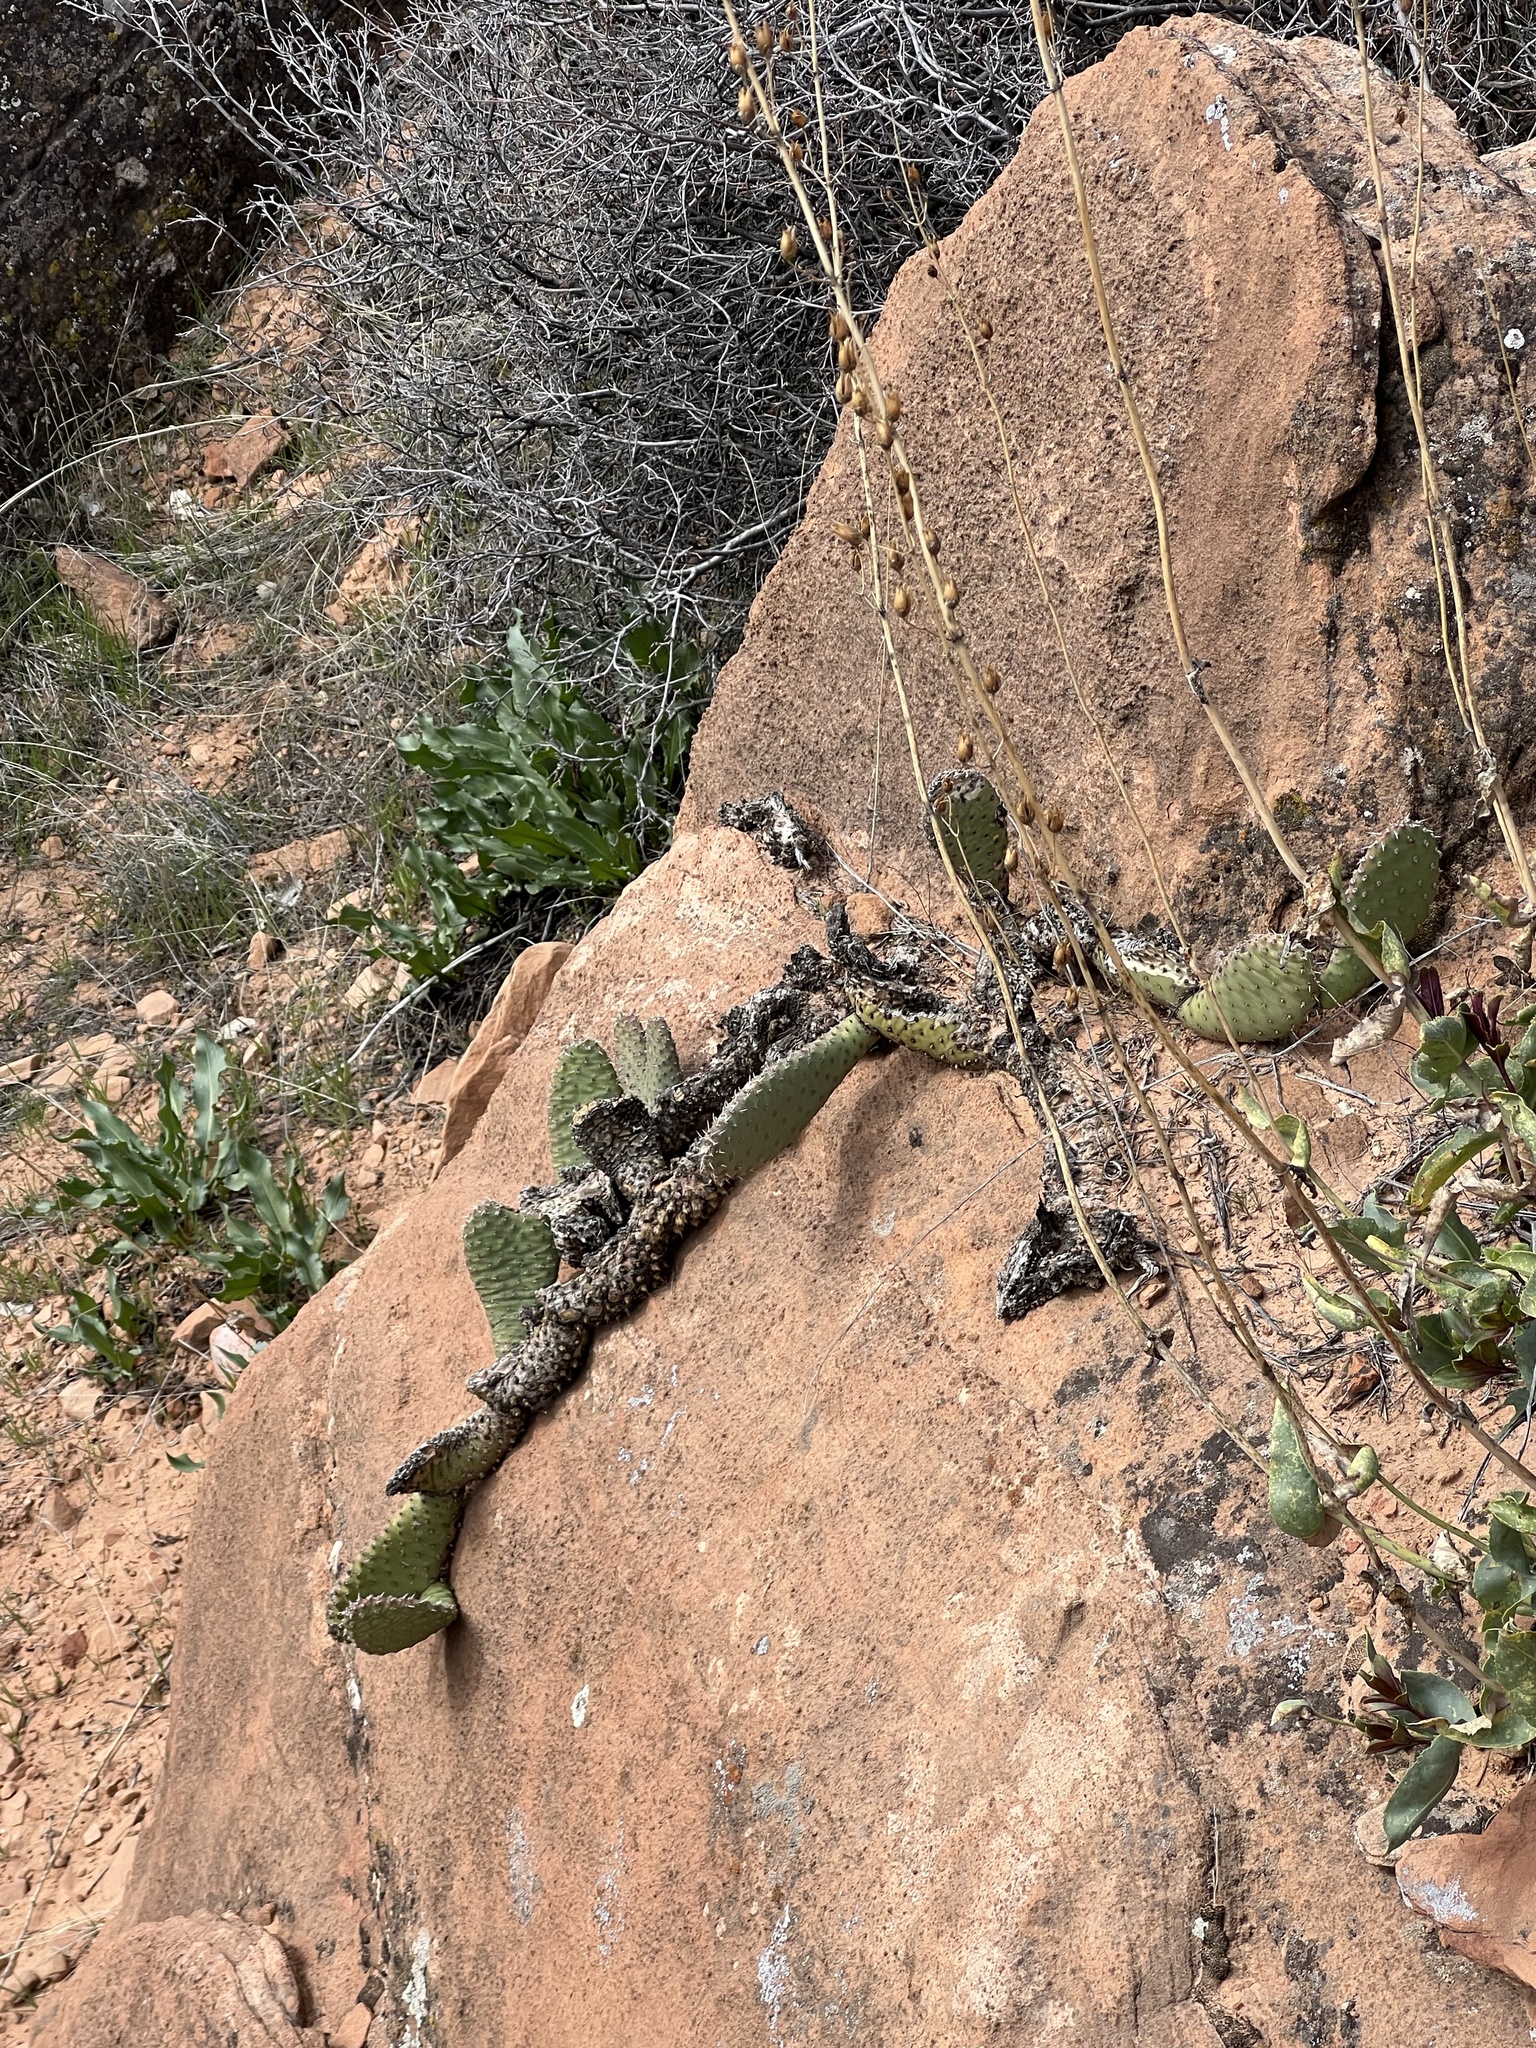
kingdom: Plantae
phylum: Tracheophyta
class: Magnoliopsida
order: Caryophyllales
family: Cactaceae
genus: Opuntia
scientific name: Opuntia aurea
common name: Golden prickly-pear
